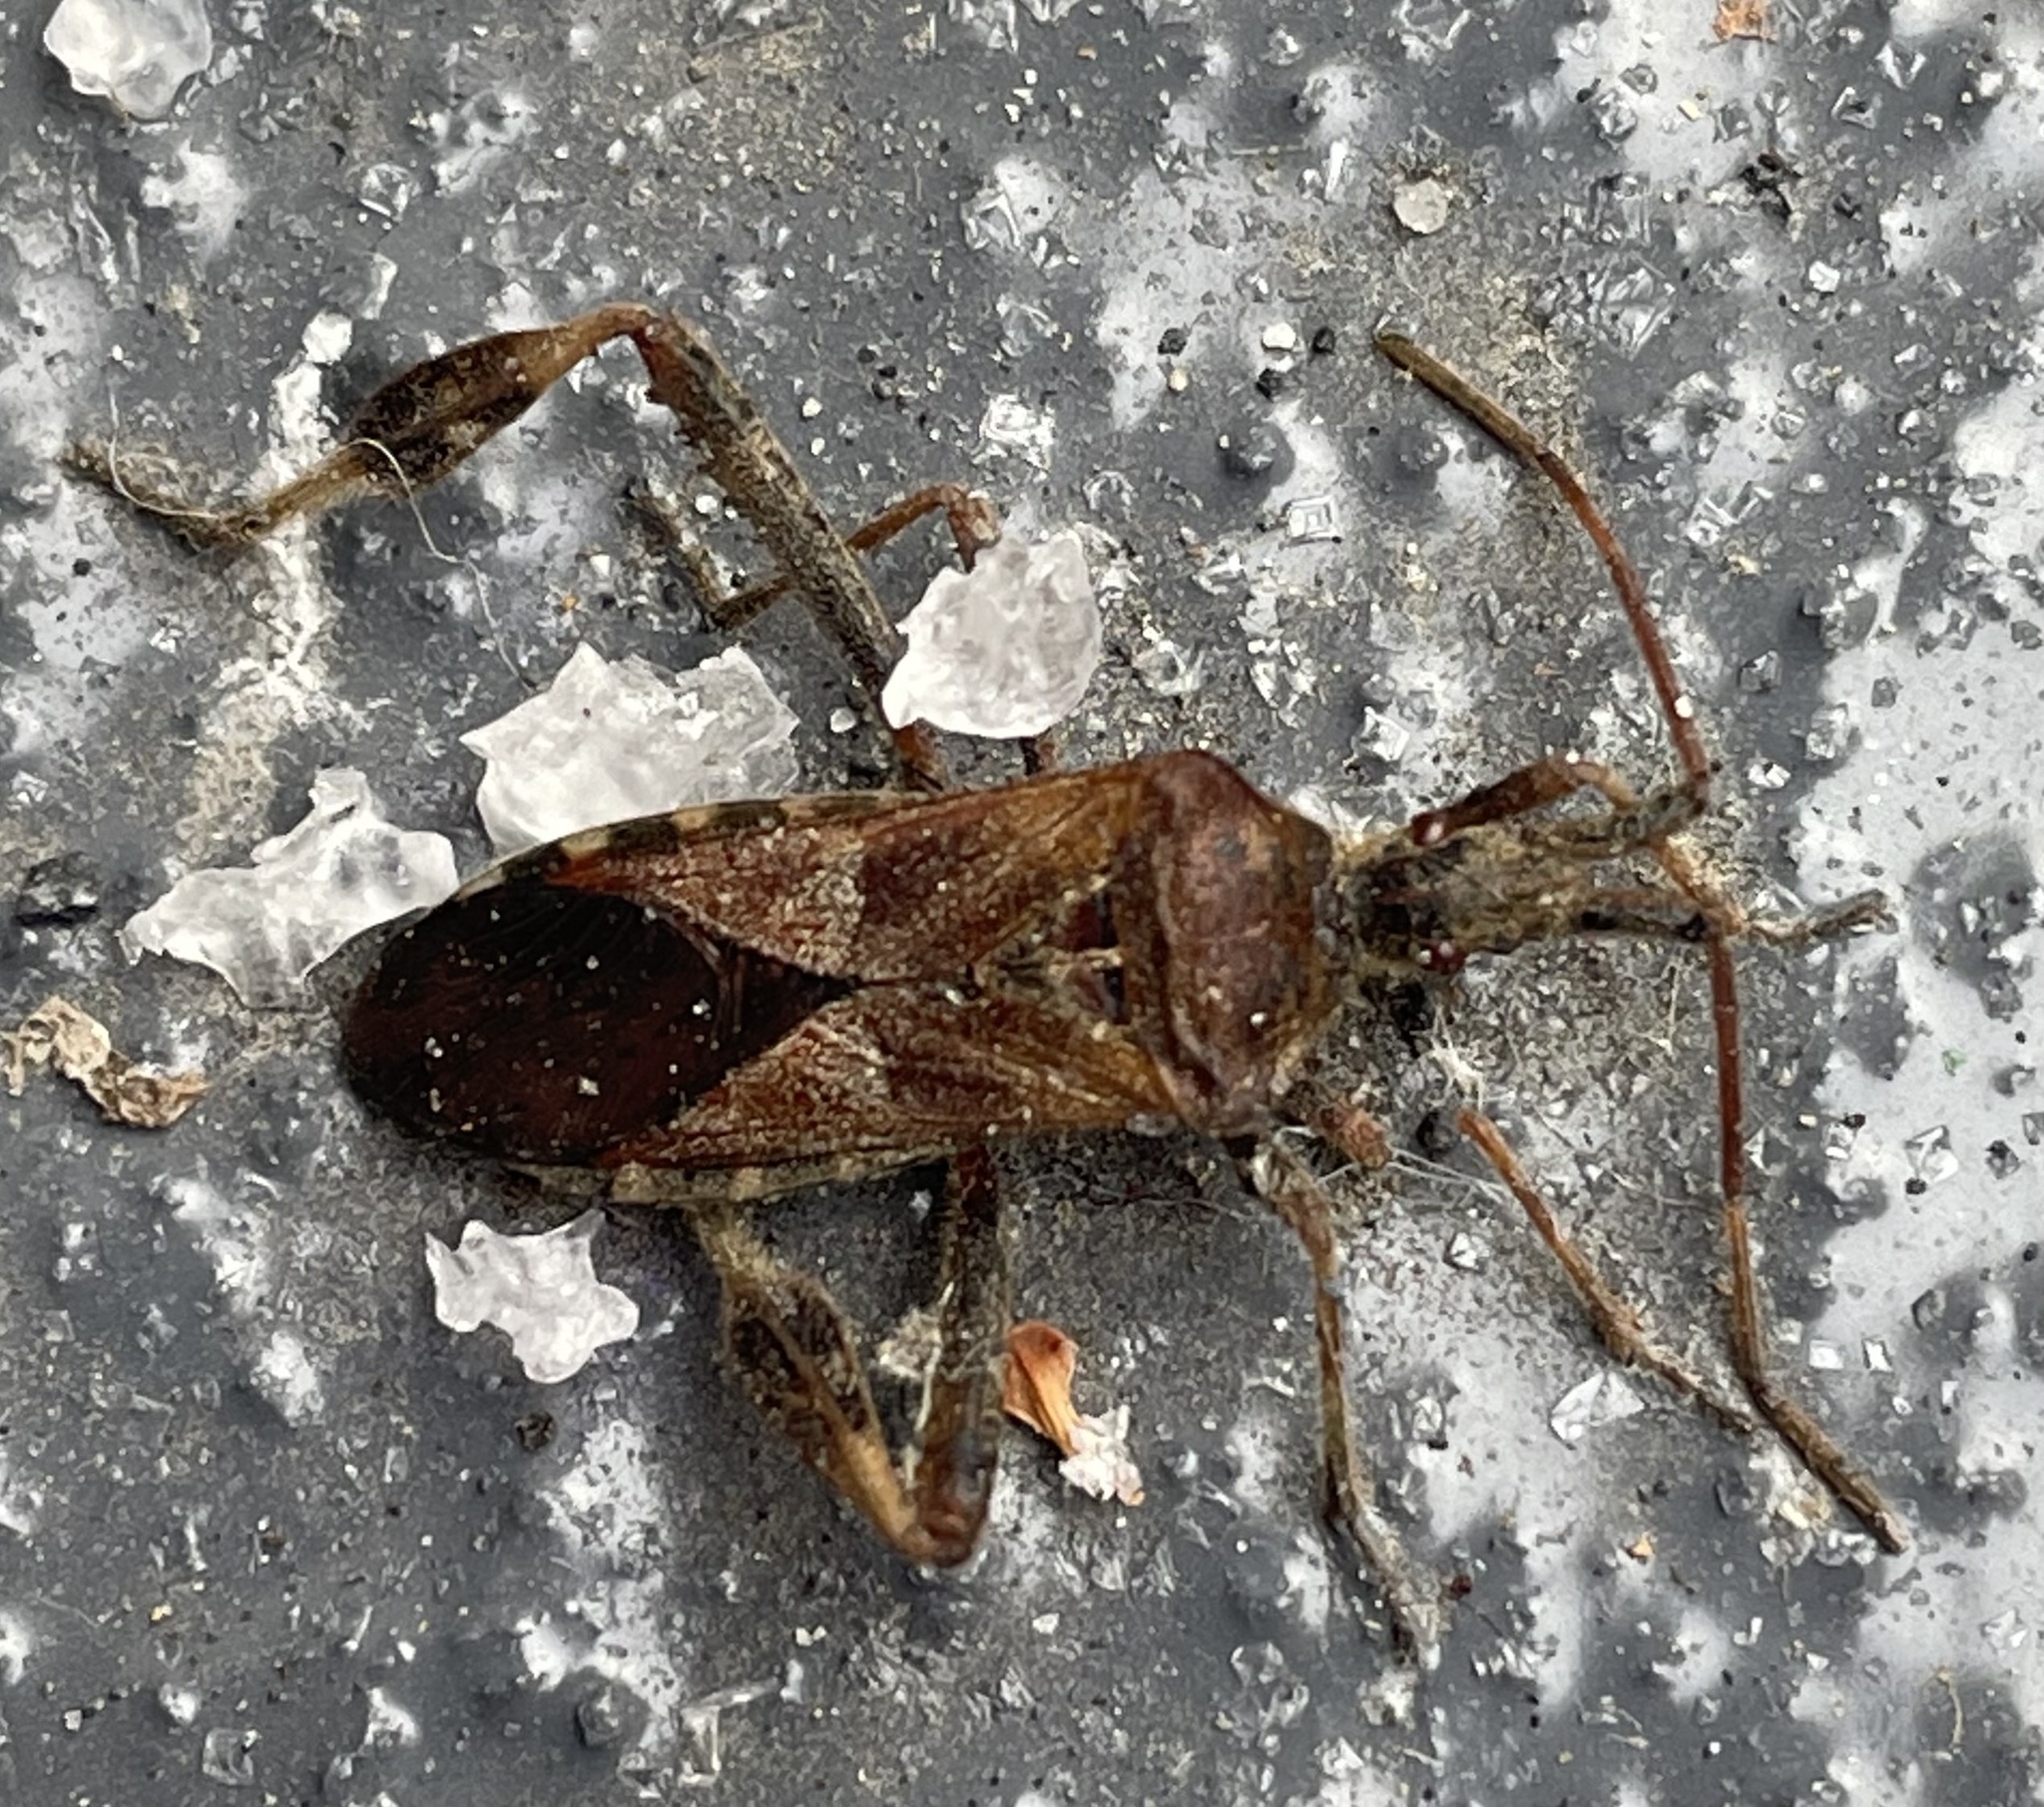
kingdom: Animalia
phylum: Arthropoda
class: Insecta
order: Hemiptera
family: Coreidae
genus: Leptoglossus
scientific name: Leptoglossus occidentalis
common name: Western conifer-seed bug
